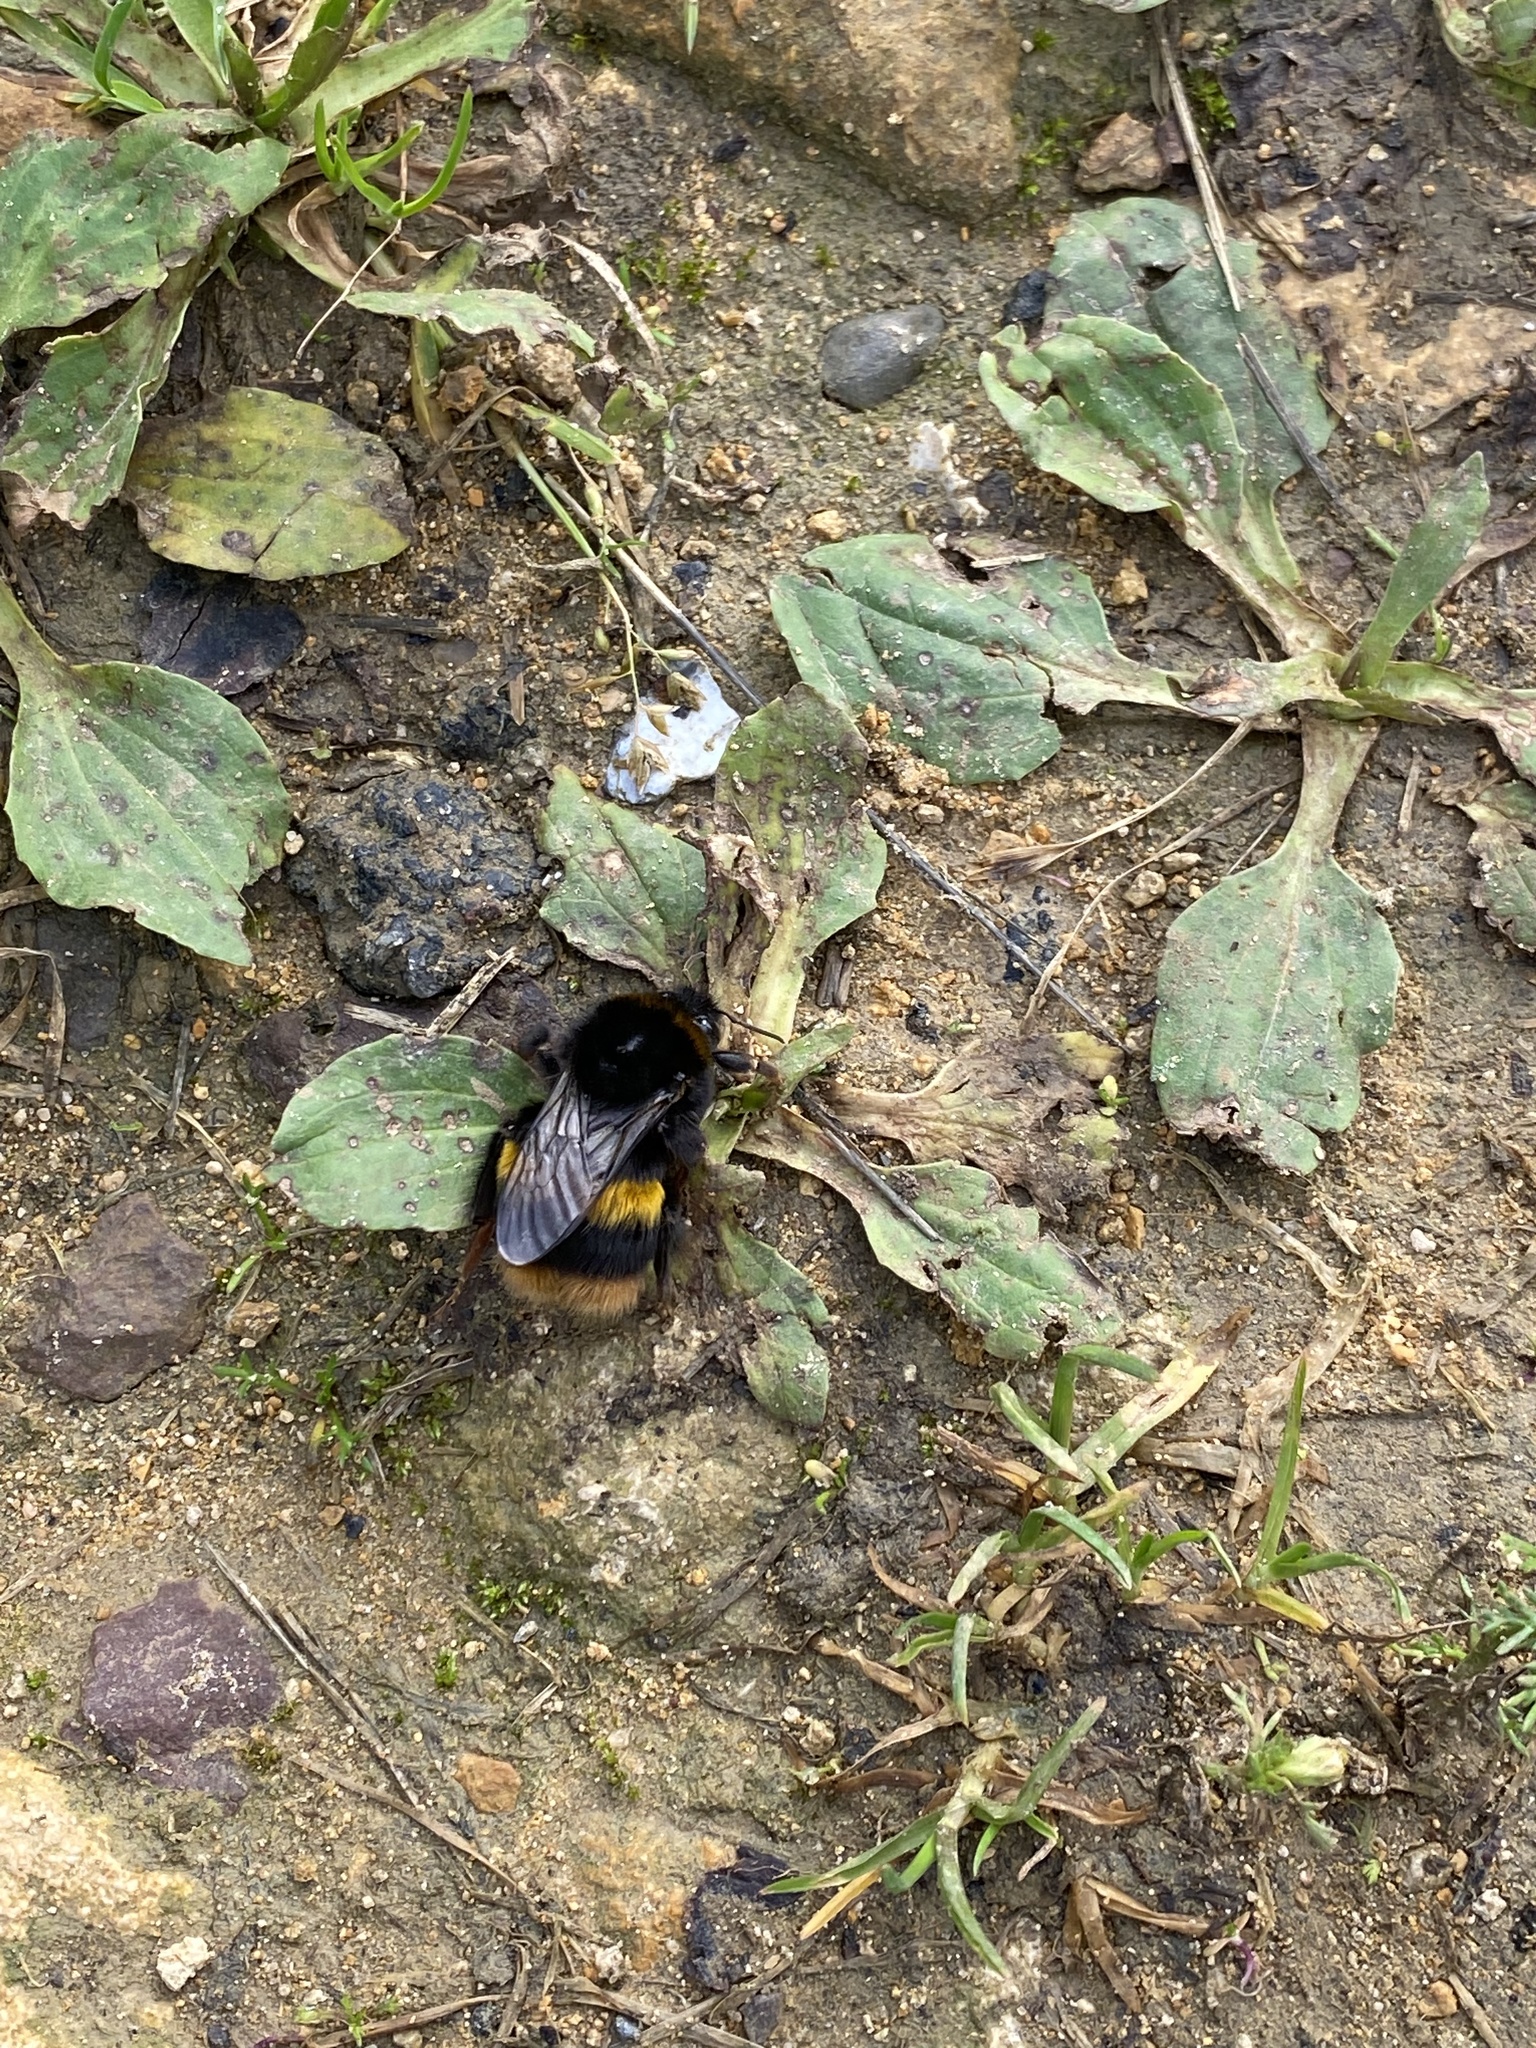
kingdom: Animalia
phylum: Arthropoda
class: Insecta
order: Hymenoptera
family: Apidae
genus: Bombus
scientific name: Bombus terrestris
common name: Buff-tailed bumblebee
